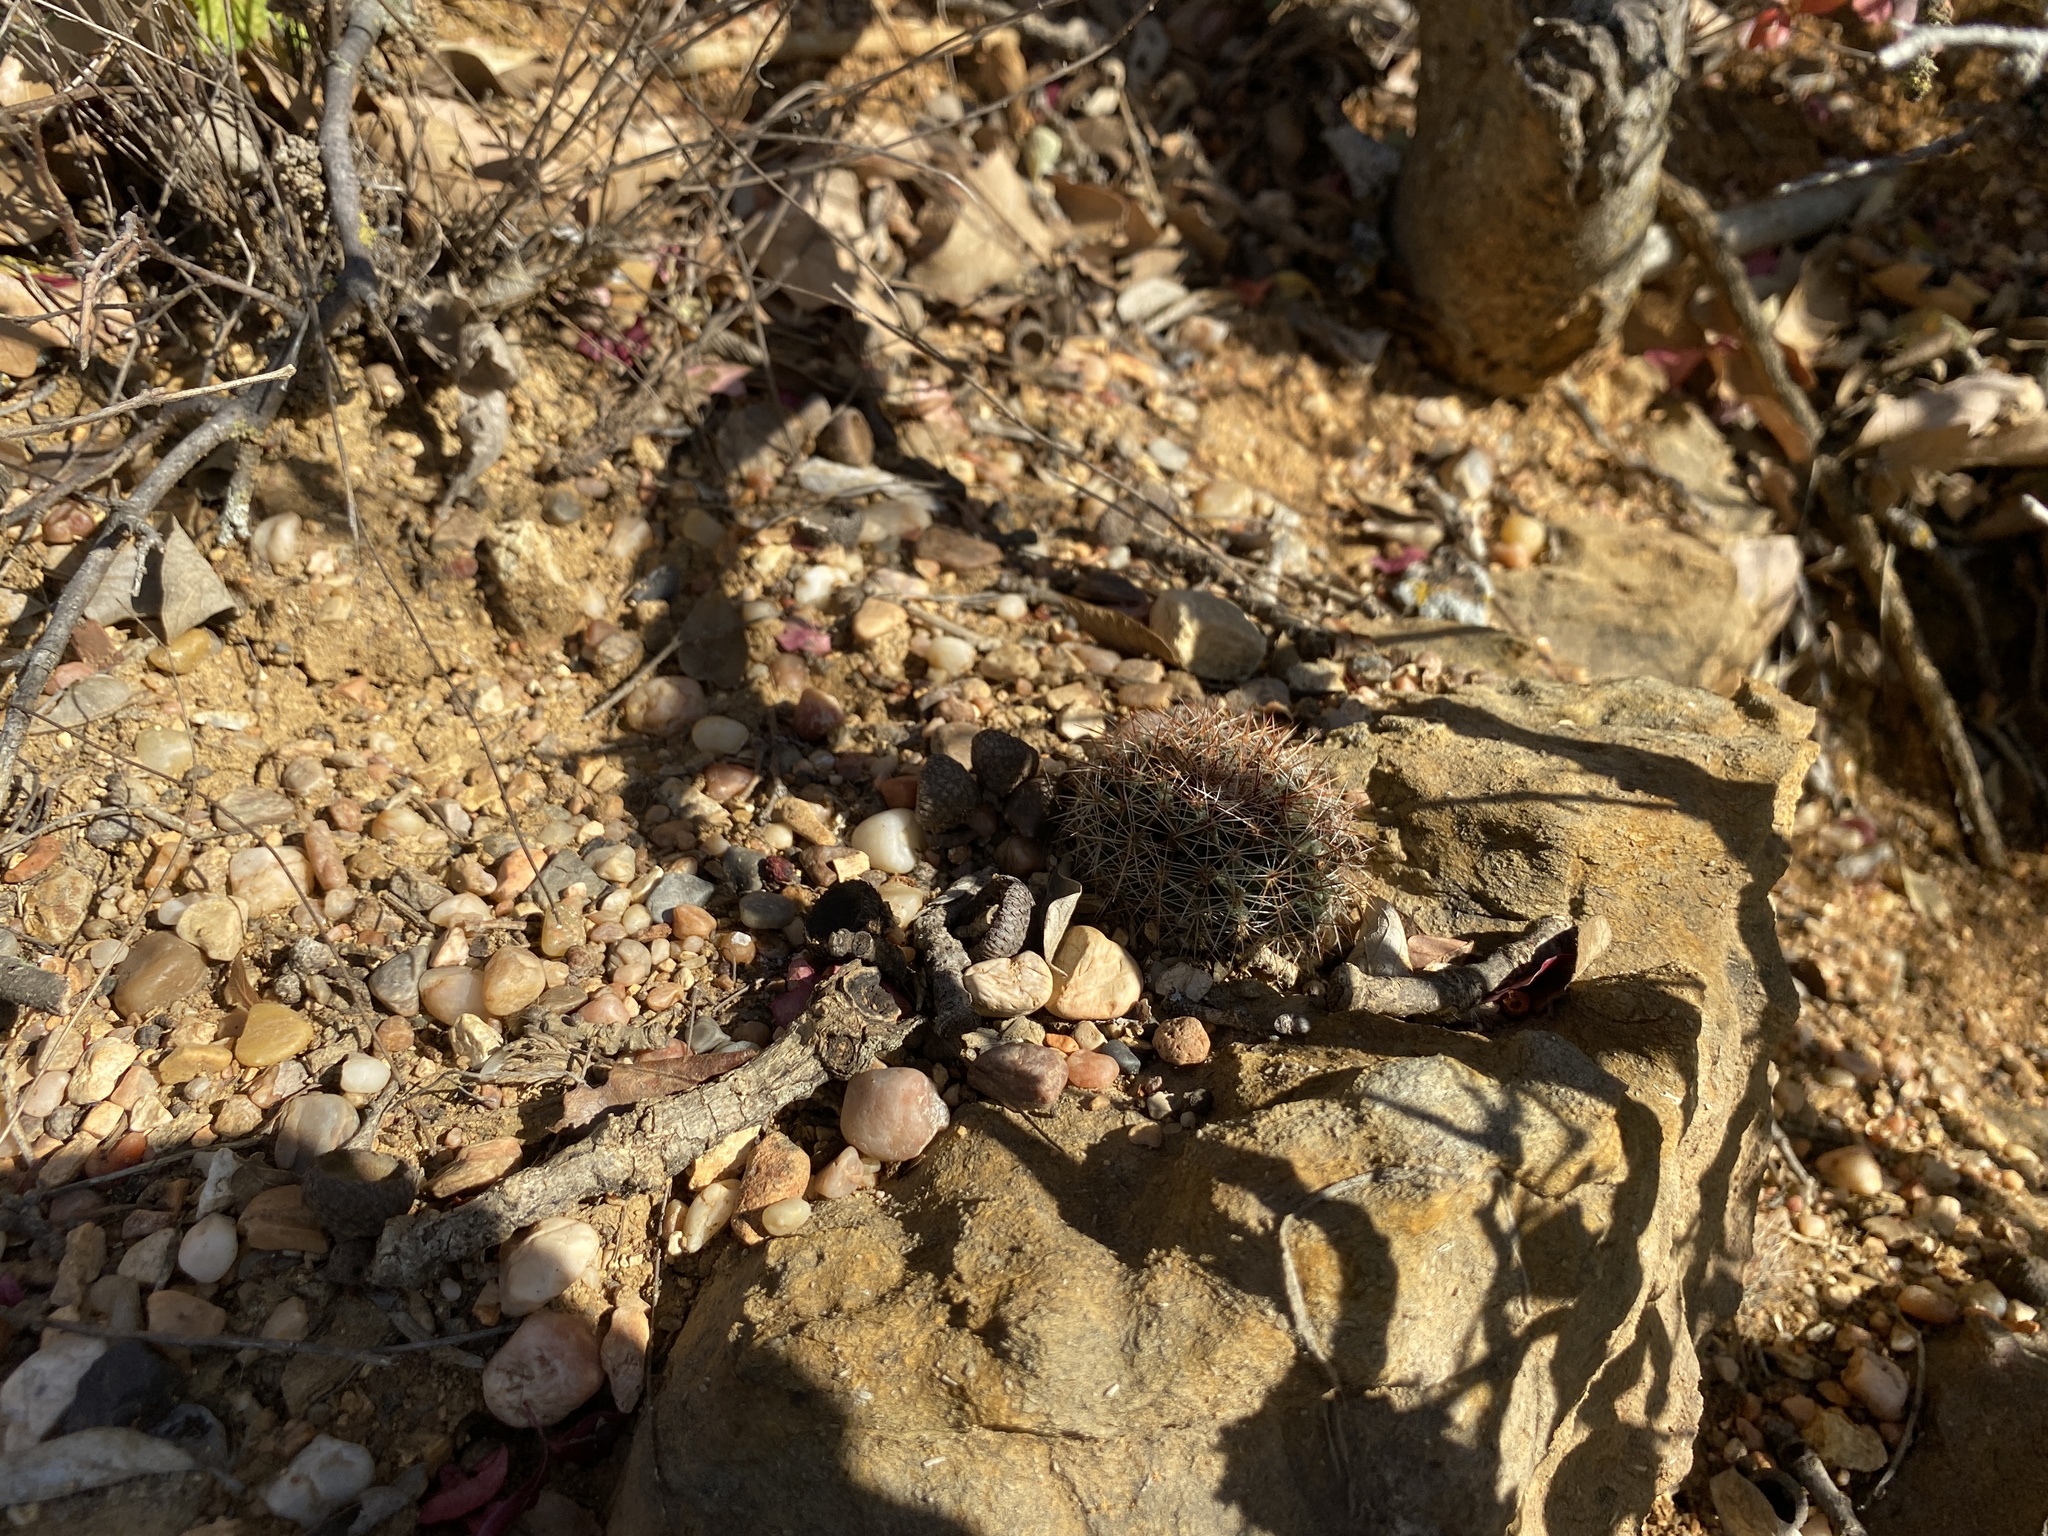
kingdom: Plantae
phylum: Tracheophyta
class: Magnoliopsida
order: Caryophyllales
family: Cactaceae
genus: Mammillaria
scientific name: Mammillaria heyderi
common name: Little nipple cactus
